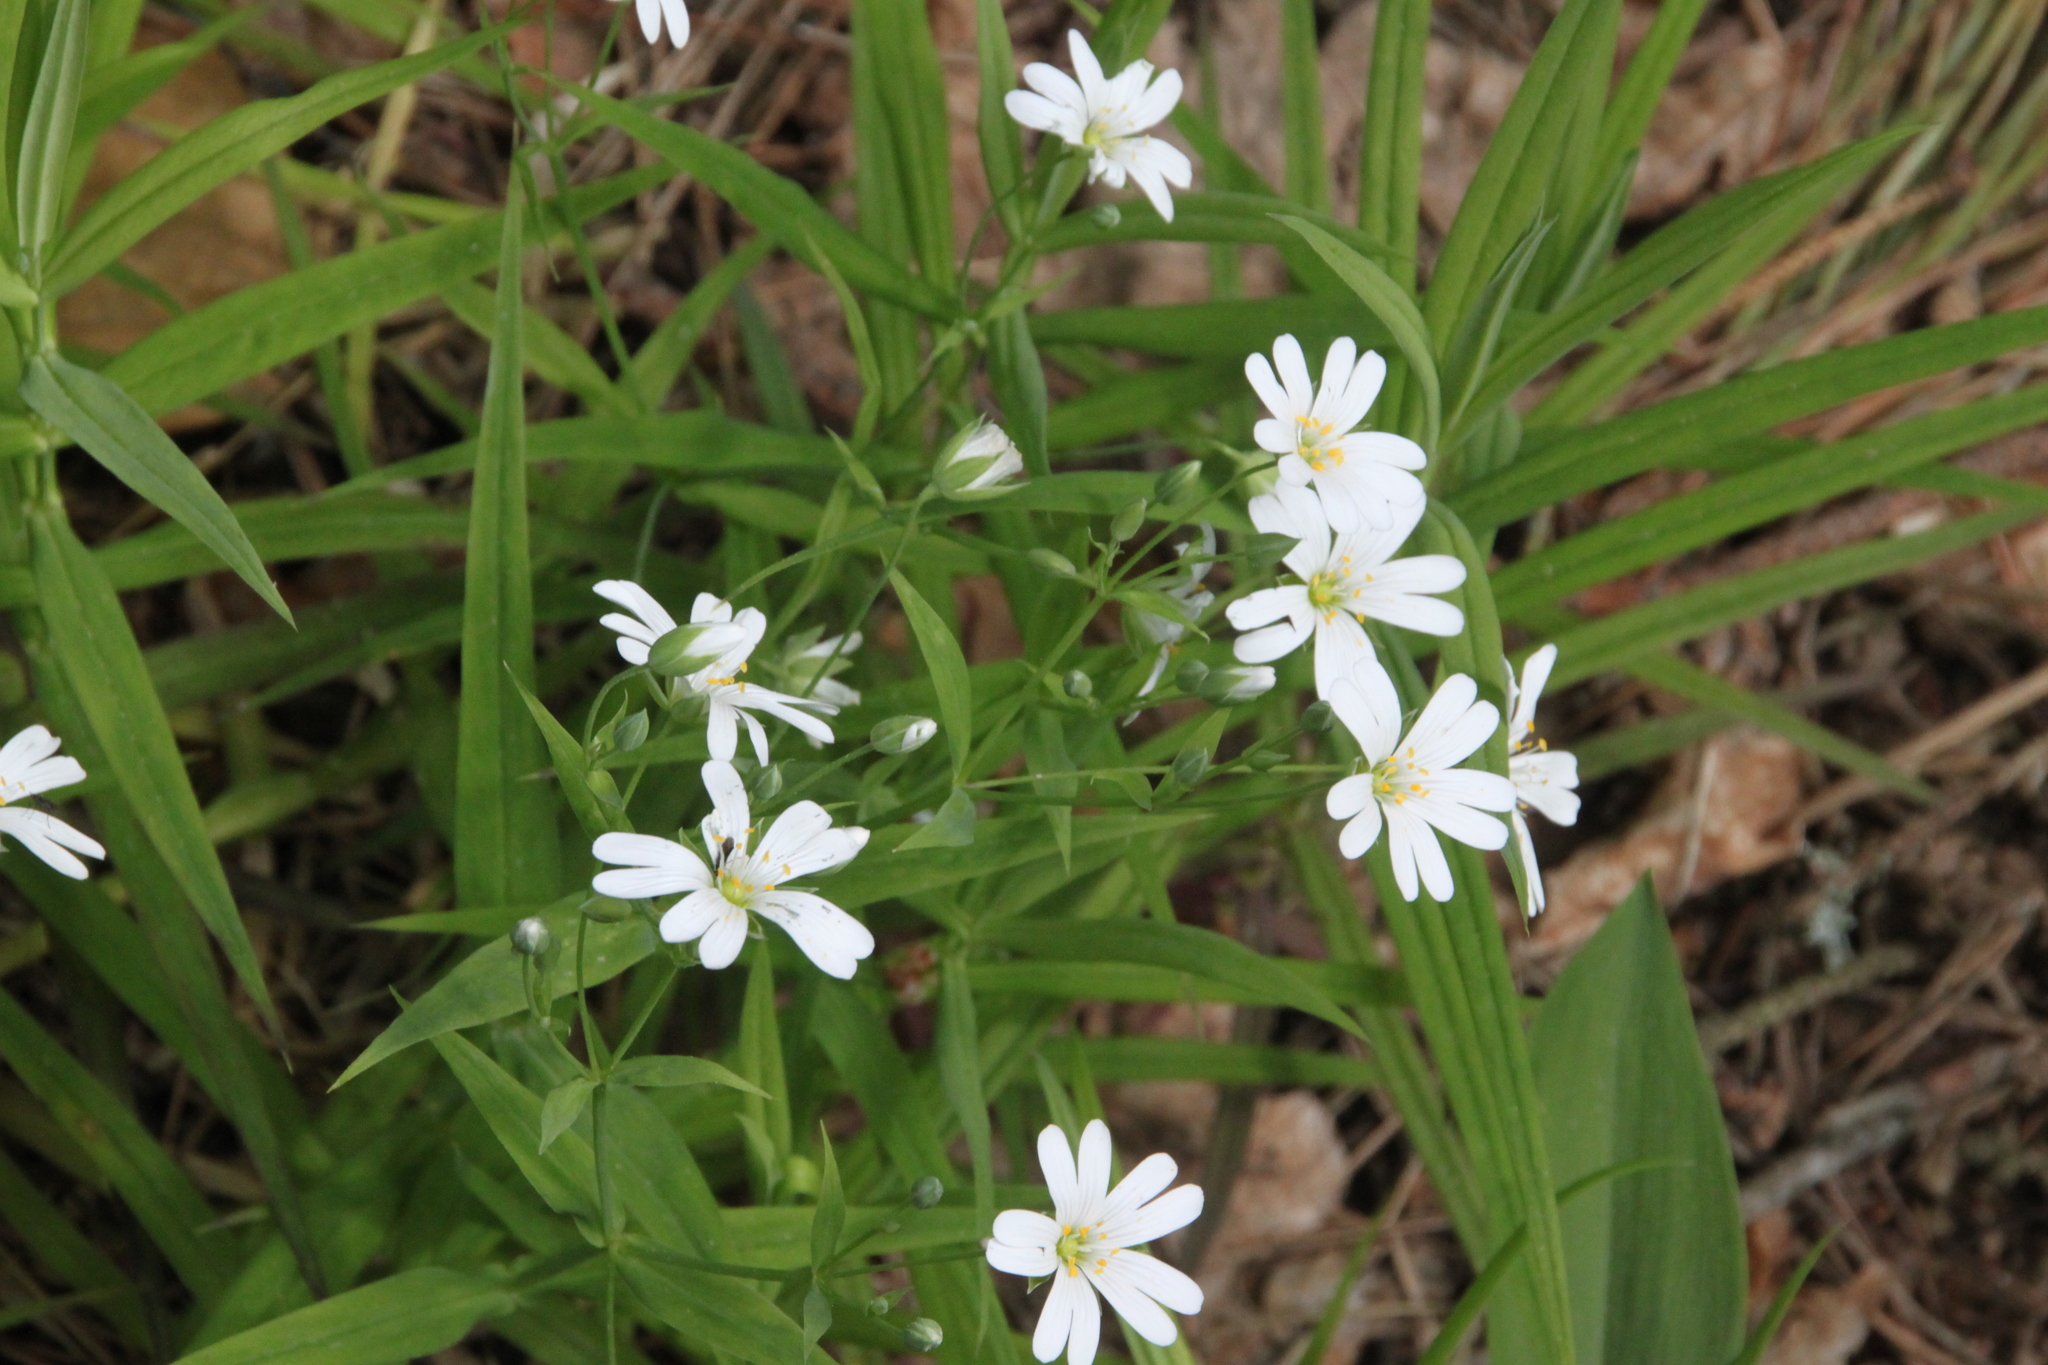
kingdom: Plantae
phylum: Tracheophyta
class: Magnoliopsida
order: Caryophyllales
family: Caryophyllaceae
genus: Rabelera
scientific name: Rabelera holostea
